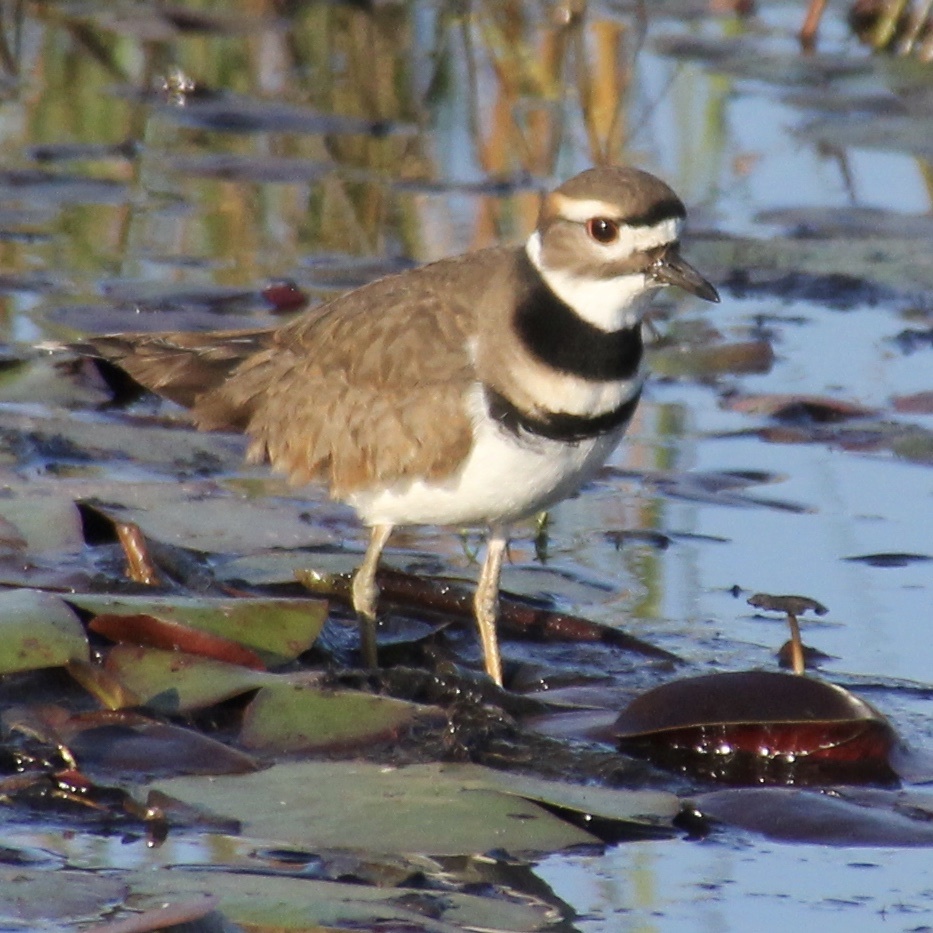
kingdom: Animalia
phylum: Chordata
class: Aves
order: Charadriiformes
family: Charadriidae
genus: Charadrius
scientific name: Charadrius vociferus
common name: Killdeer
